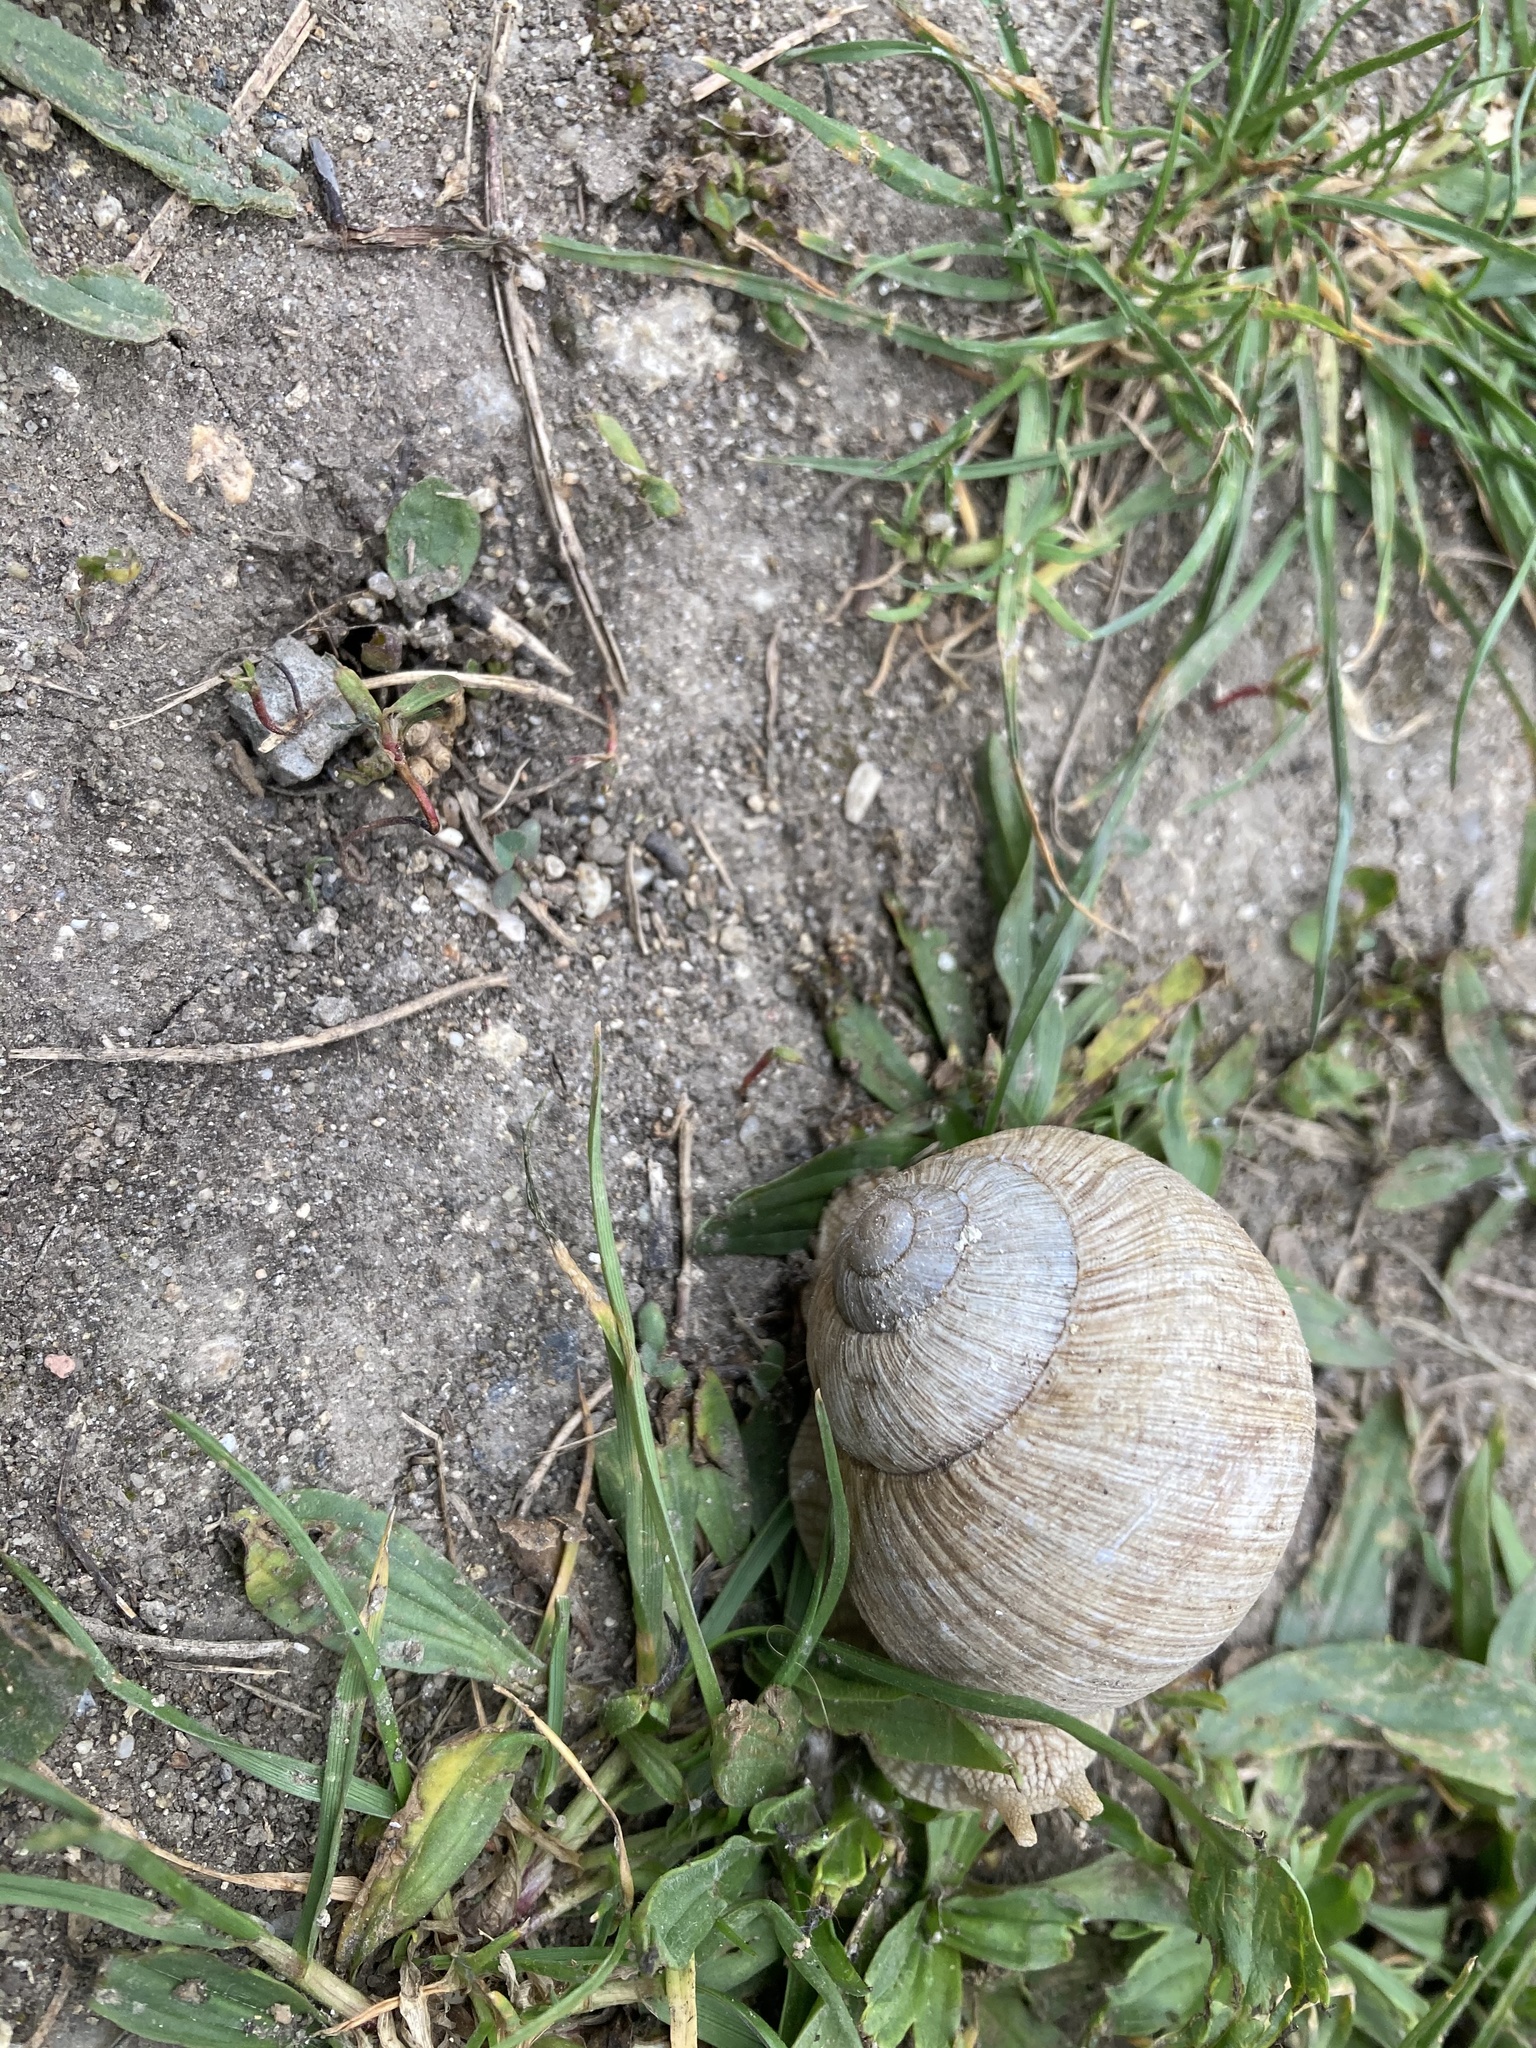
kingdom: Animalia
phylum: Mollusca
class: Gastropoda
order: Stylommatophora
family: Helicidae
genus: Helix
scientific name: Helix pomatia
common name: Roman snail
